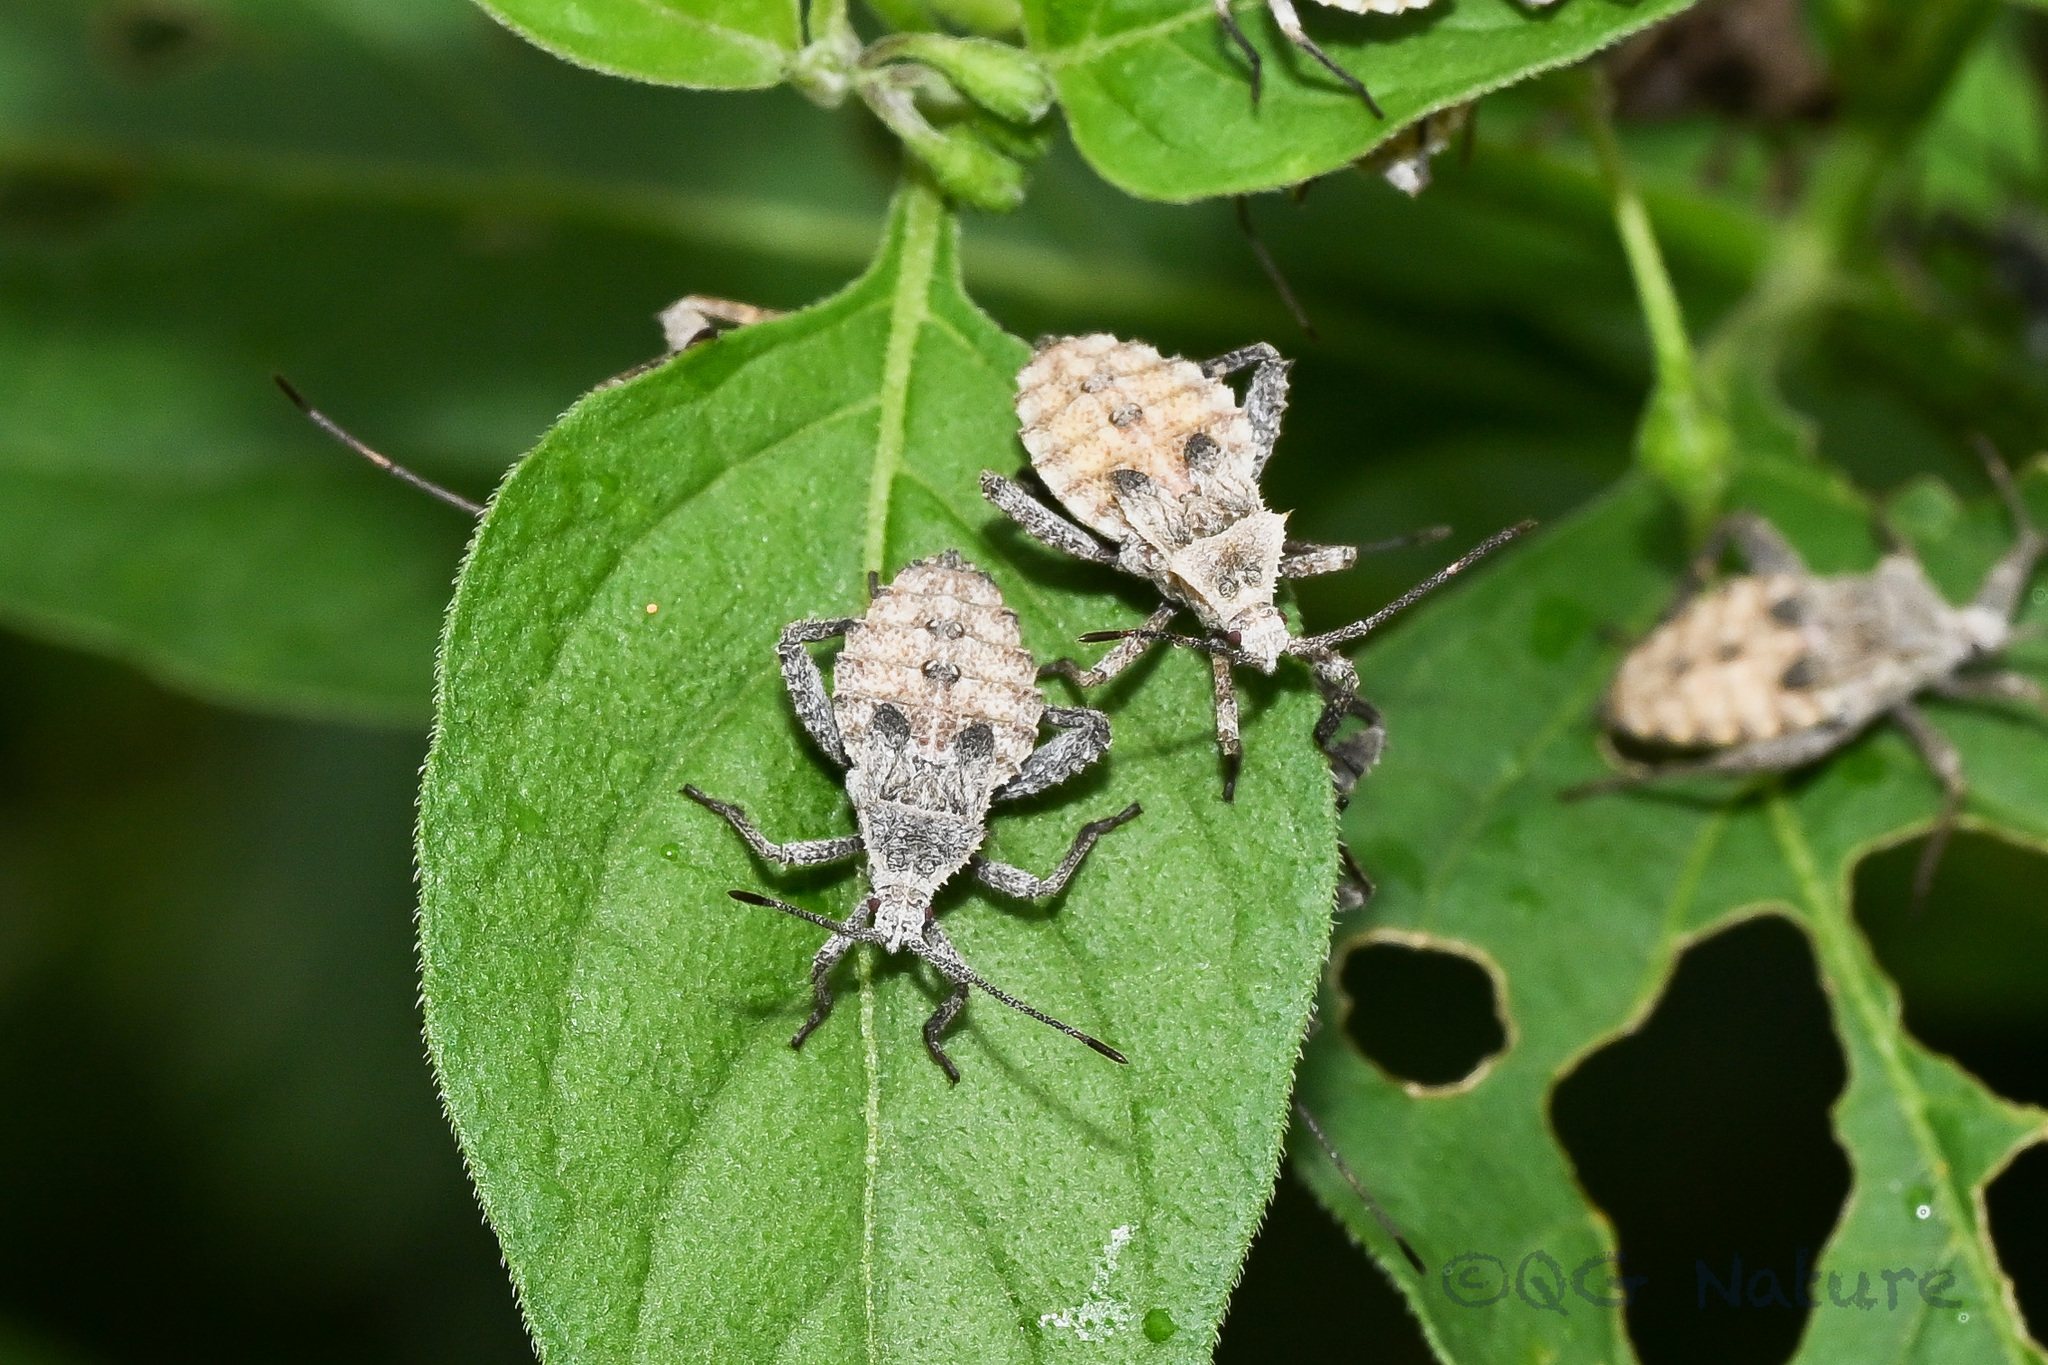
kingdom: Animalia
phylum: Arthropoda
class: Insecta
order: Hemiptera
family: Coreidae
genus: Acanthocoris
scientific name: Acanthocoris scaber
